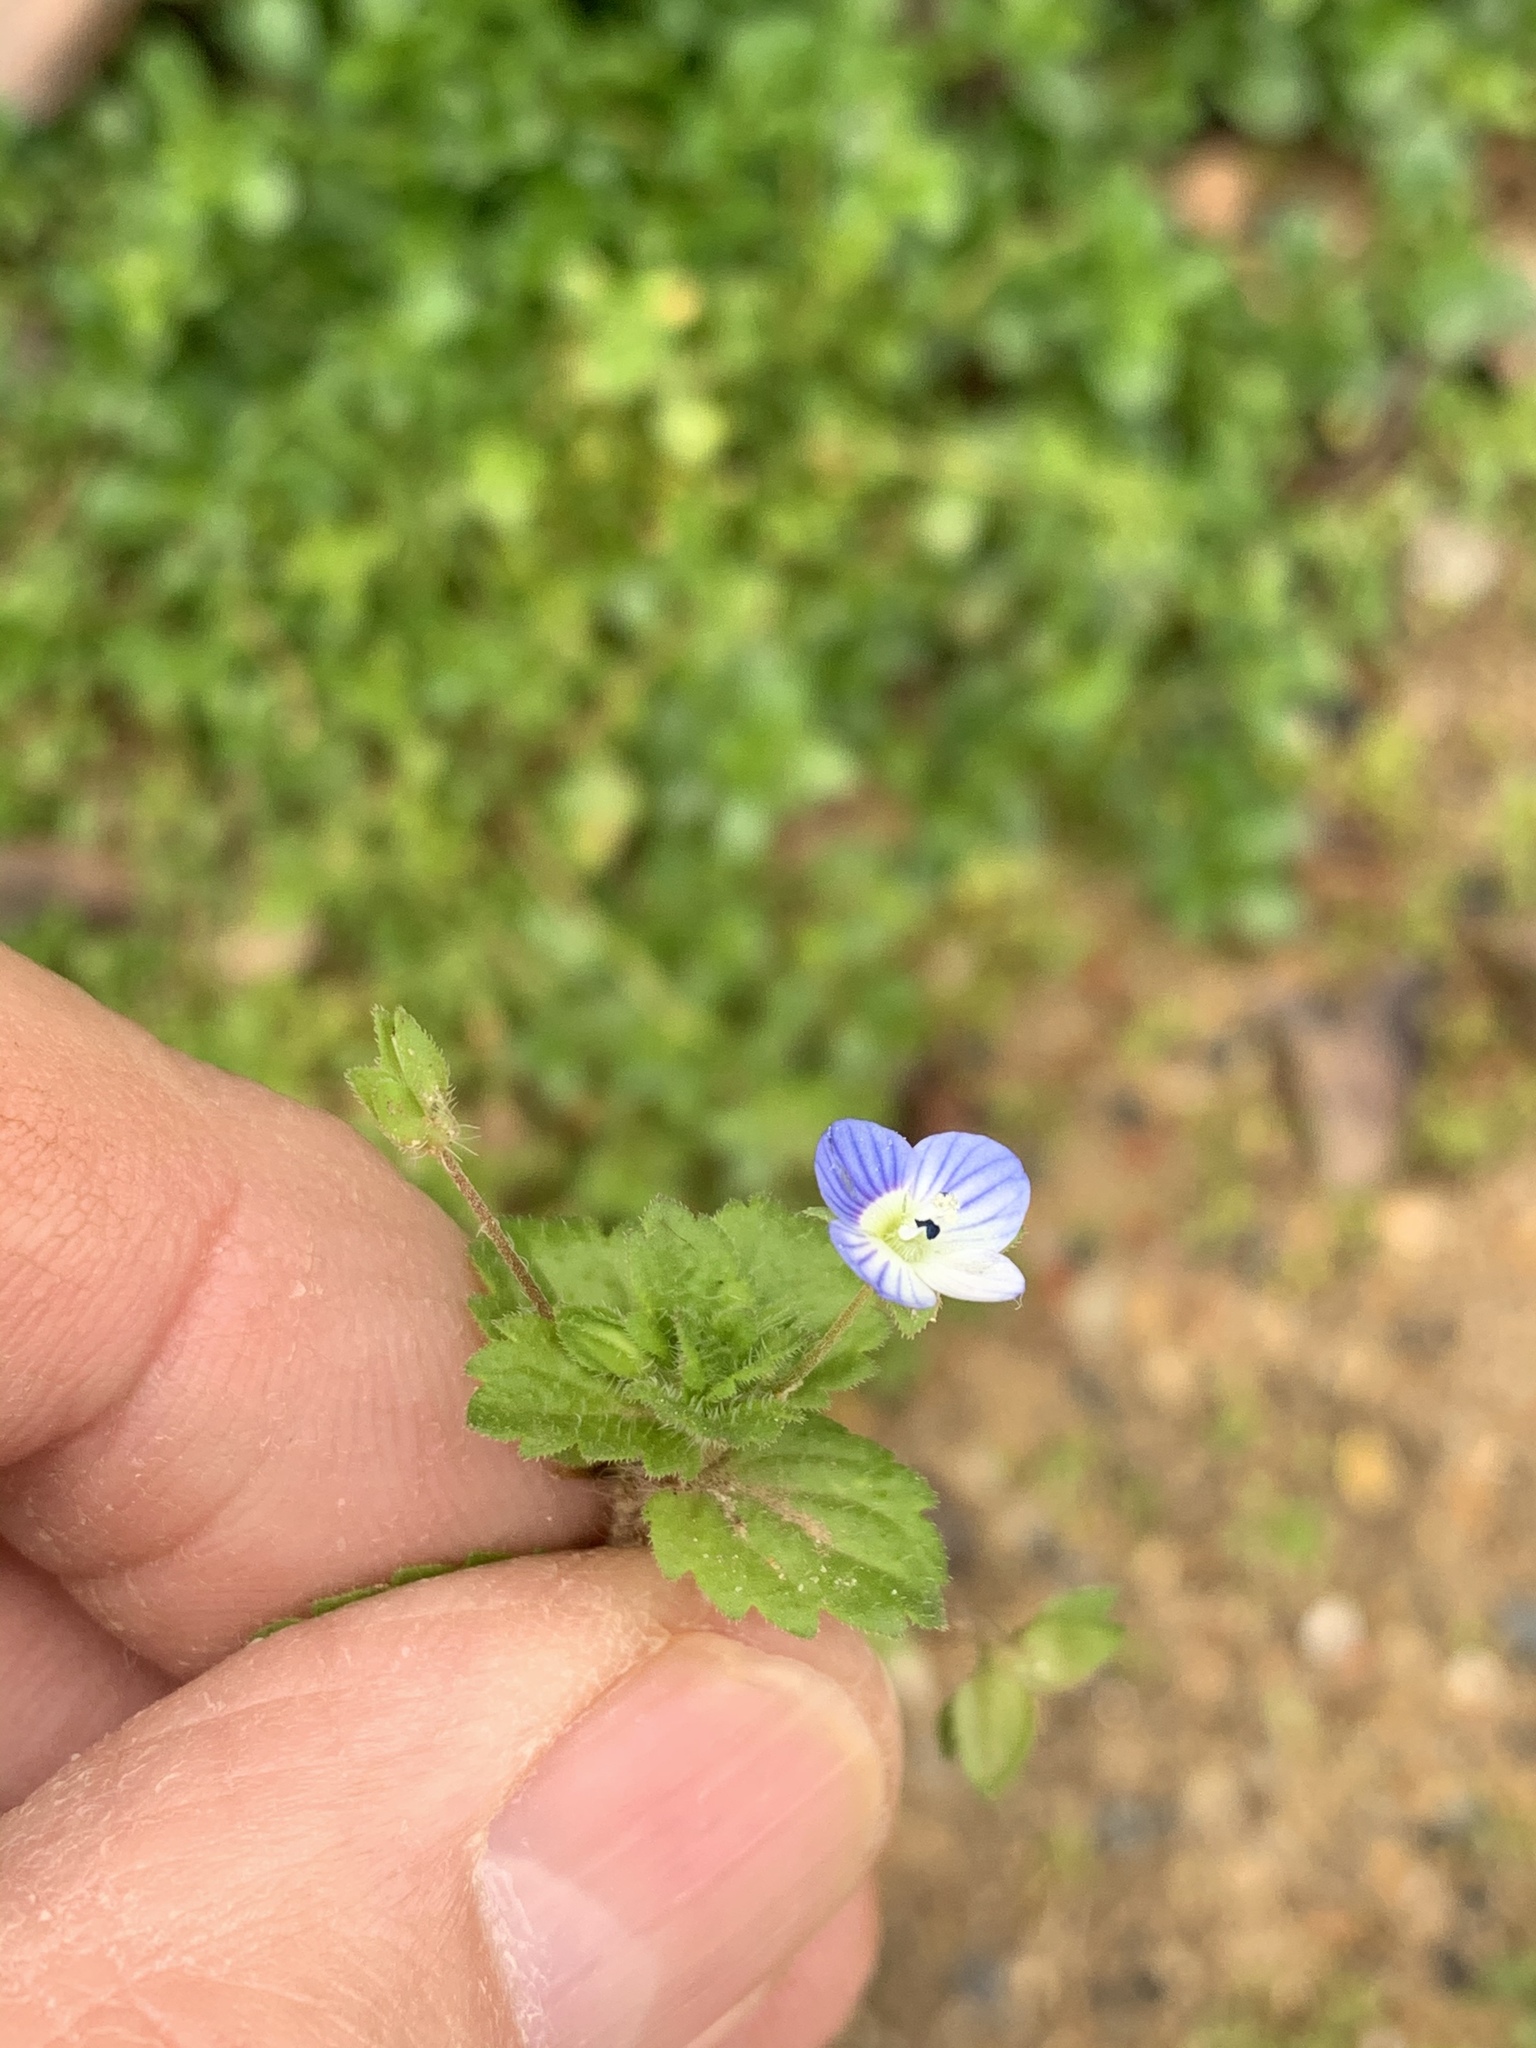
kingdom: Plantae
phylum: Tracheophyta
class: Magnoliopsida
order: Lamiales
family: Plantaginaceae
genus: Veronica
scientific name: Veronica persica
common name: Common field-speedwell
